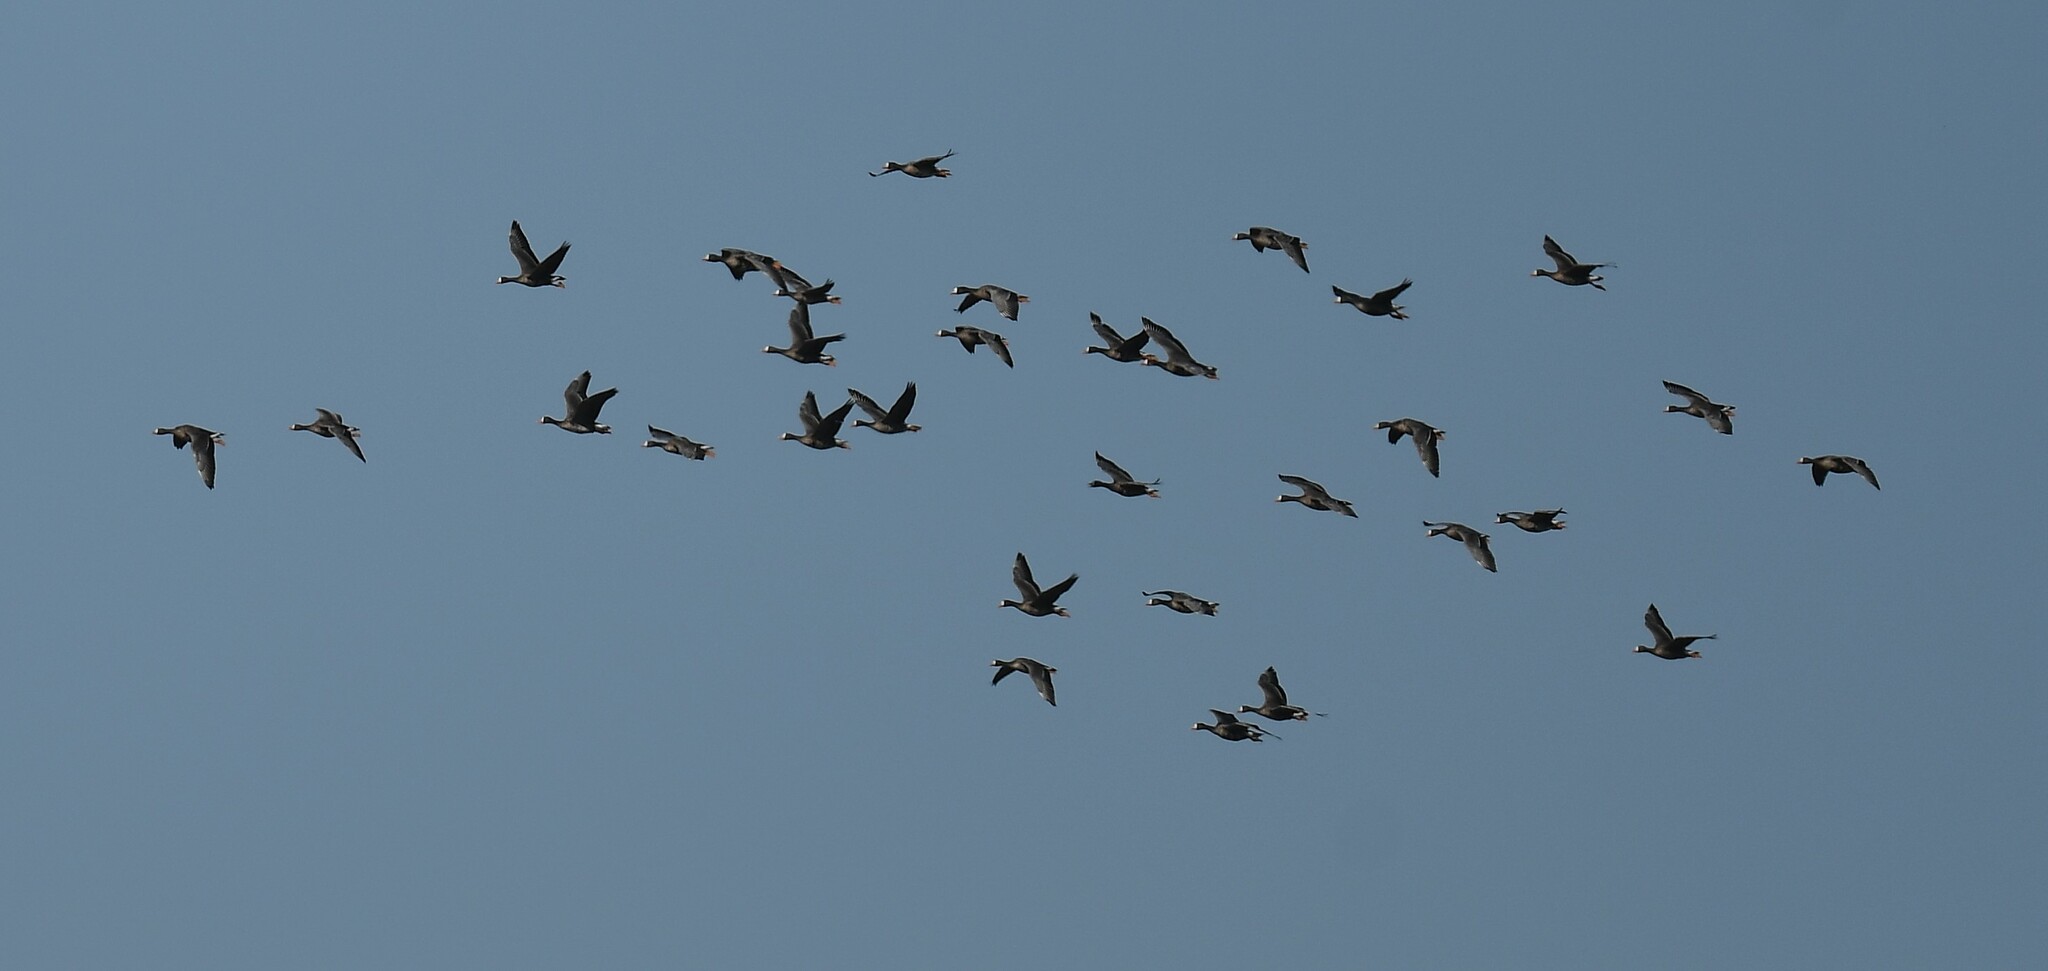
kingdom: Animalia
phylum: Chordata
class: Aves
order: Anseriformes
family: Anatidae
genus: Anser
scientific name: Anser albifrons
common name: Greater white-fronted goose
